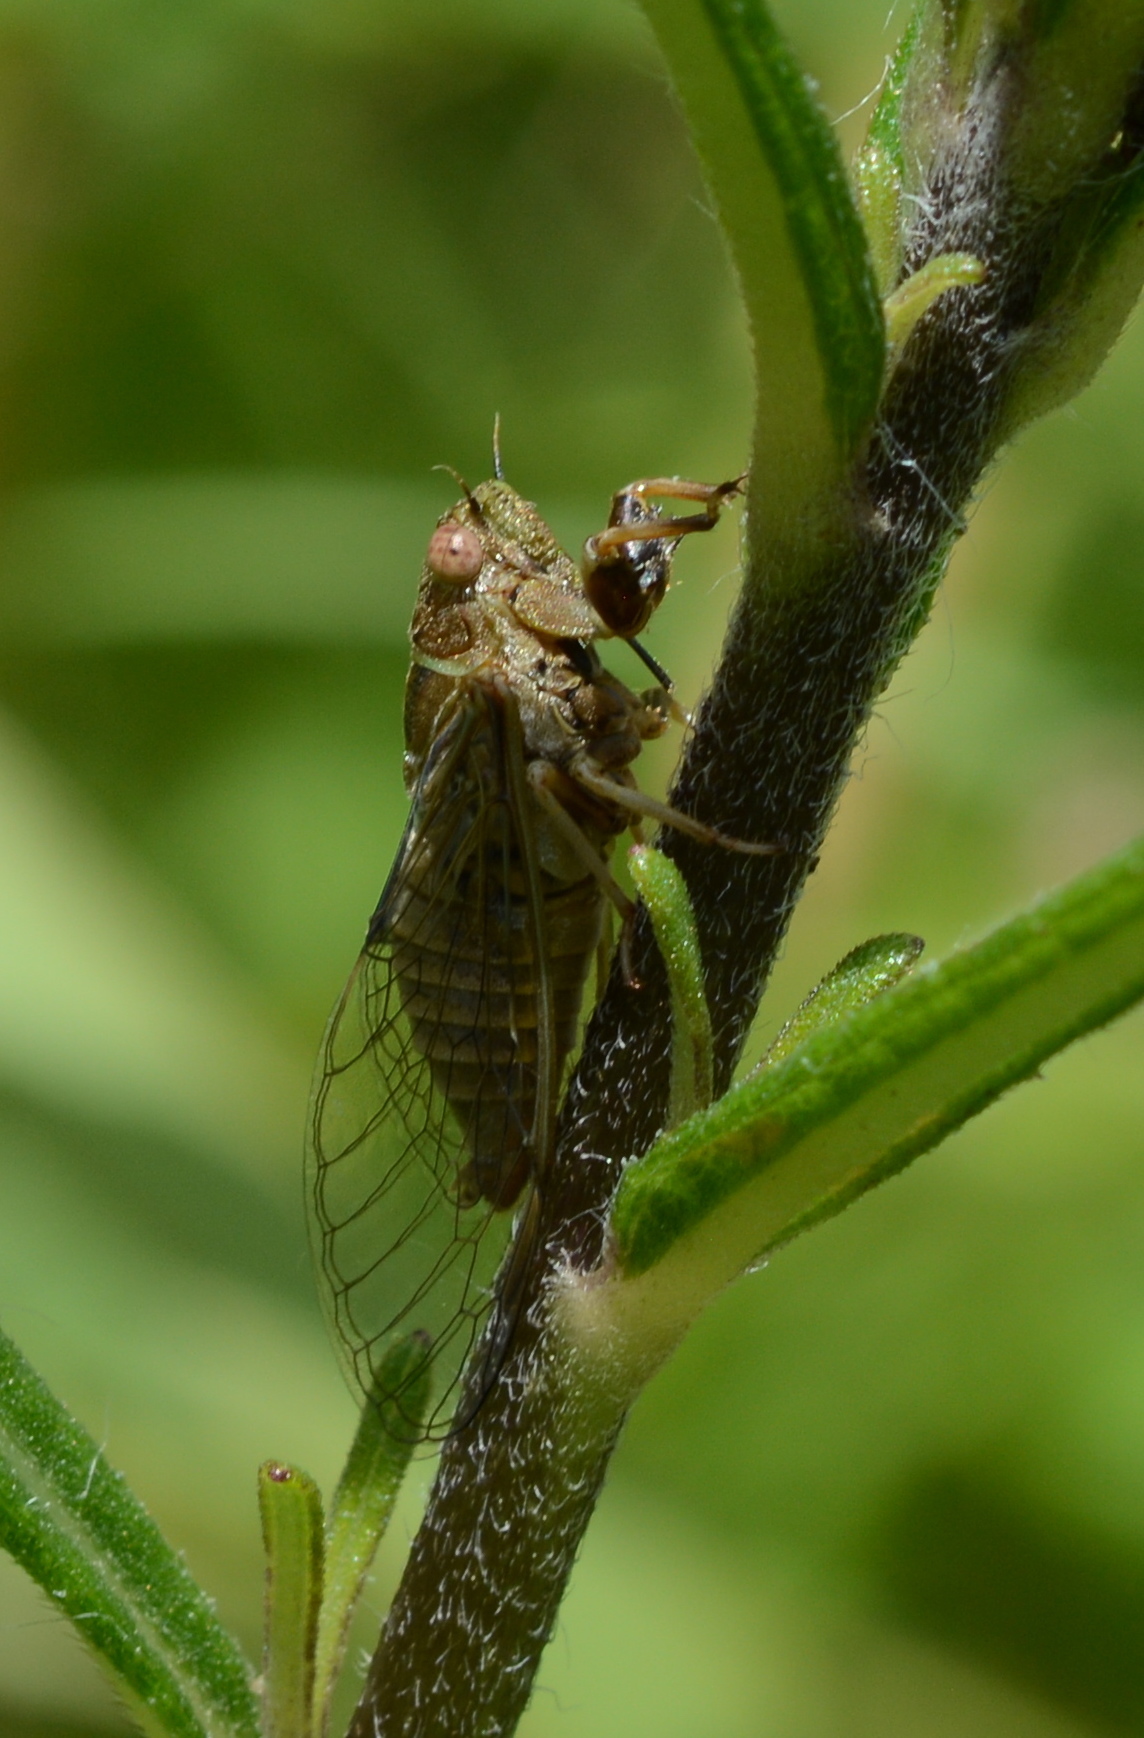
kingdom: Animalia
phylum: Arthropoda
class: Insecta
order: Hemiptera
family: Cicadidae
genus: Cicadettana
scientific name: Cicadettana calliope
